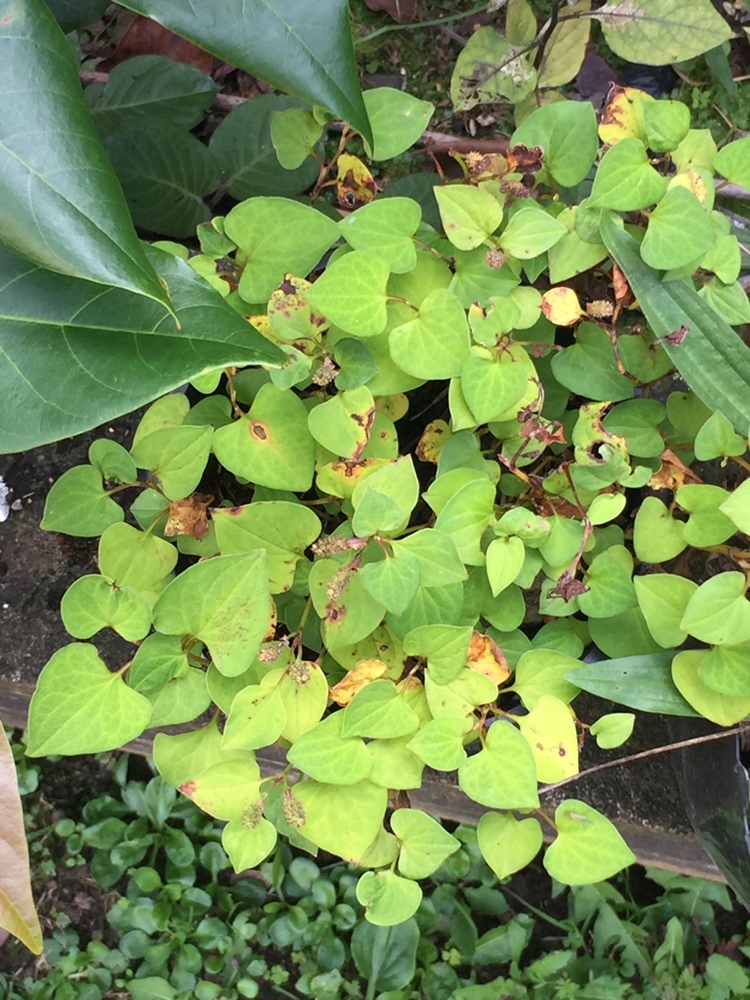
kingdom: Plantae
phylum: Tracheophyta
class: Magnoliopsida
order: Piperales
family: Saururaceae
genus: Houttuynia
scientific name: Houttuynia cordata
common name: Chameleon
